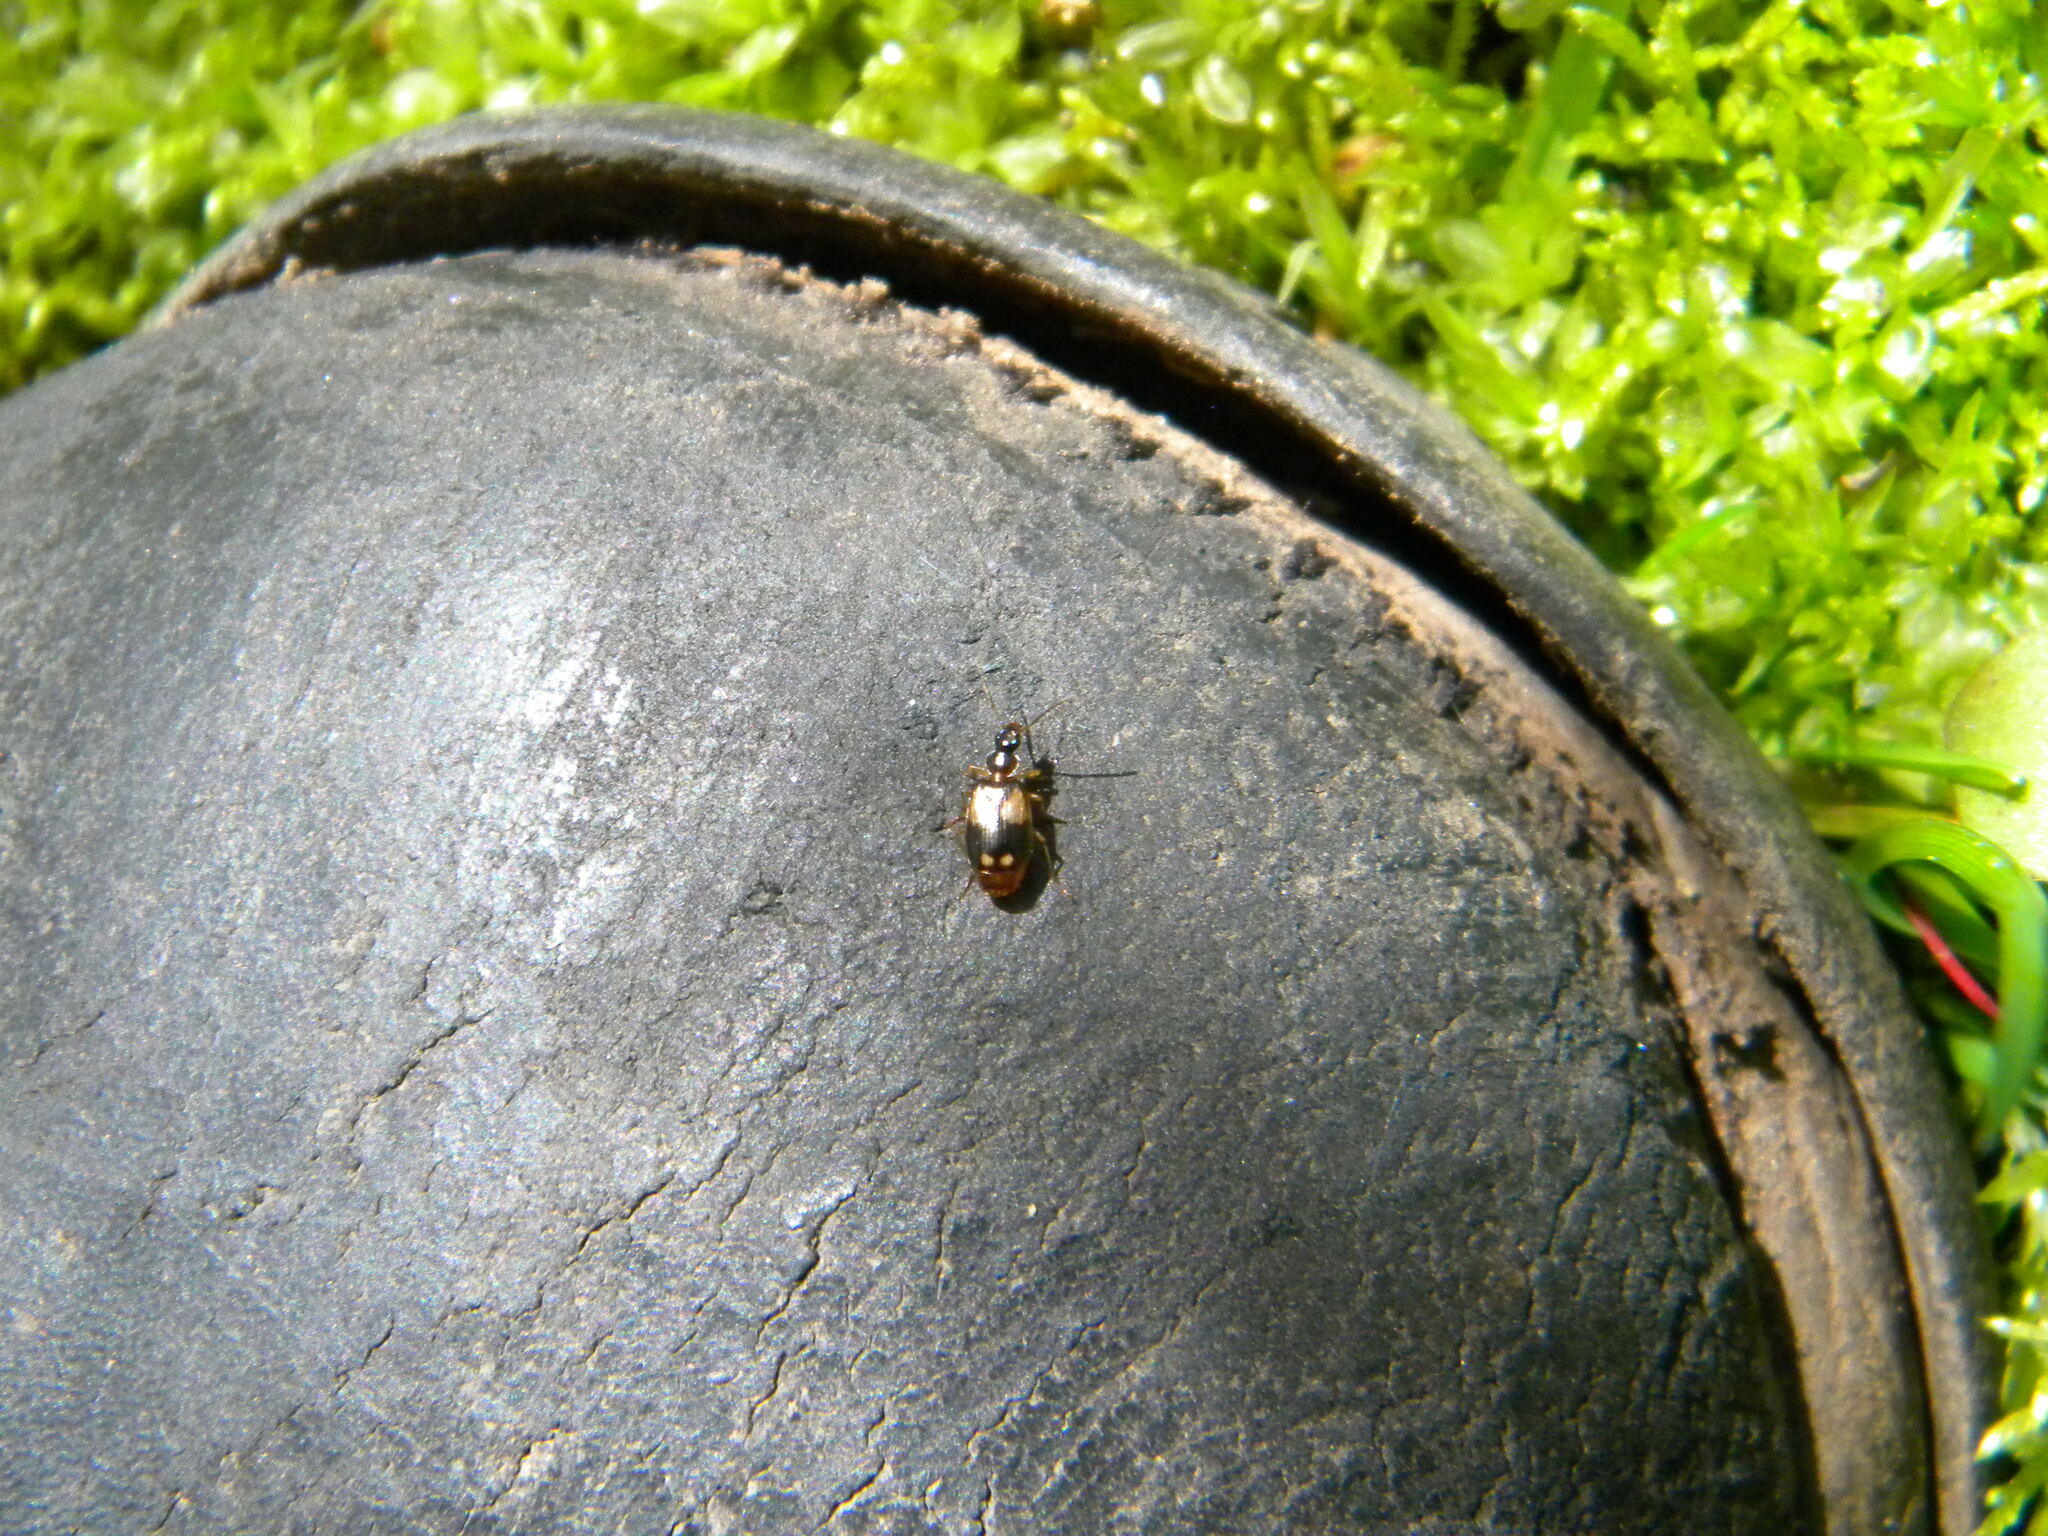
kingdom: Animalia
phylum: Arthropoda
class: Insecta
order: Coleoptera
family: Carabidae
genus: Lebia
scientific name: Lebia analis
